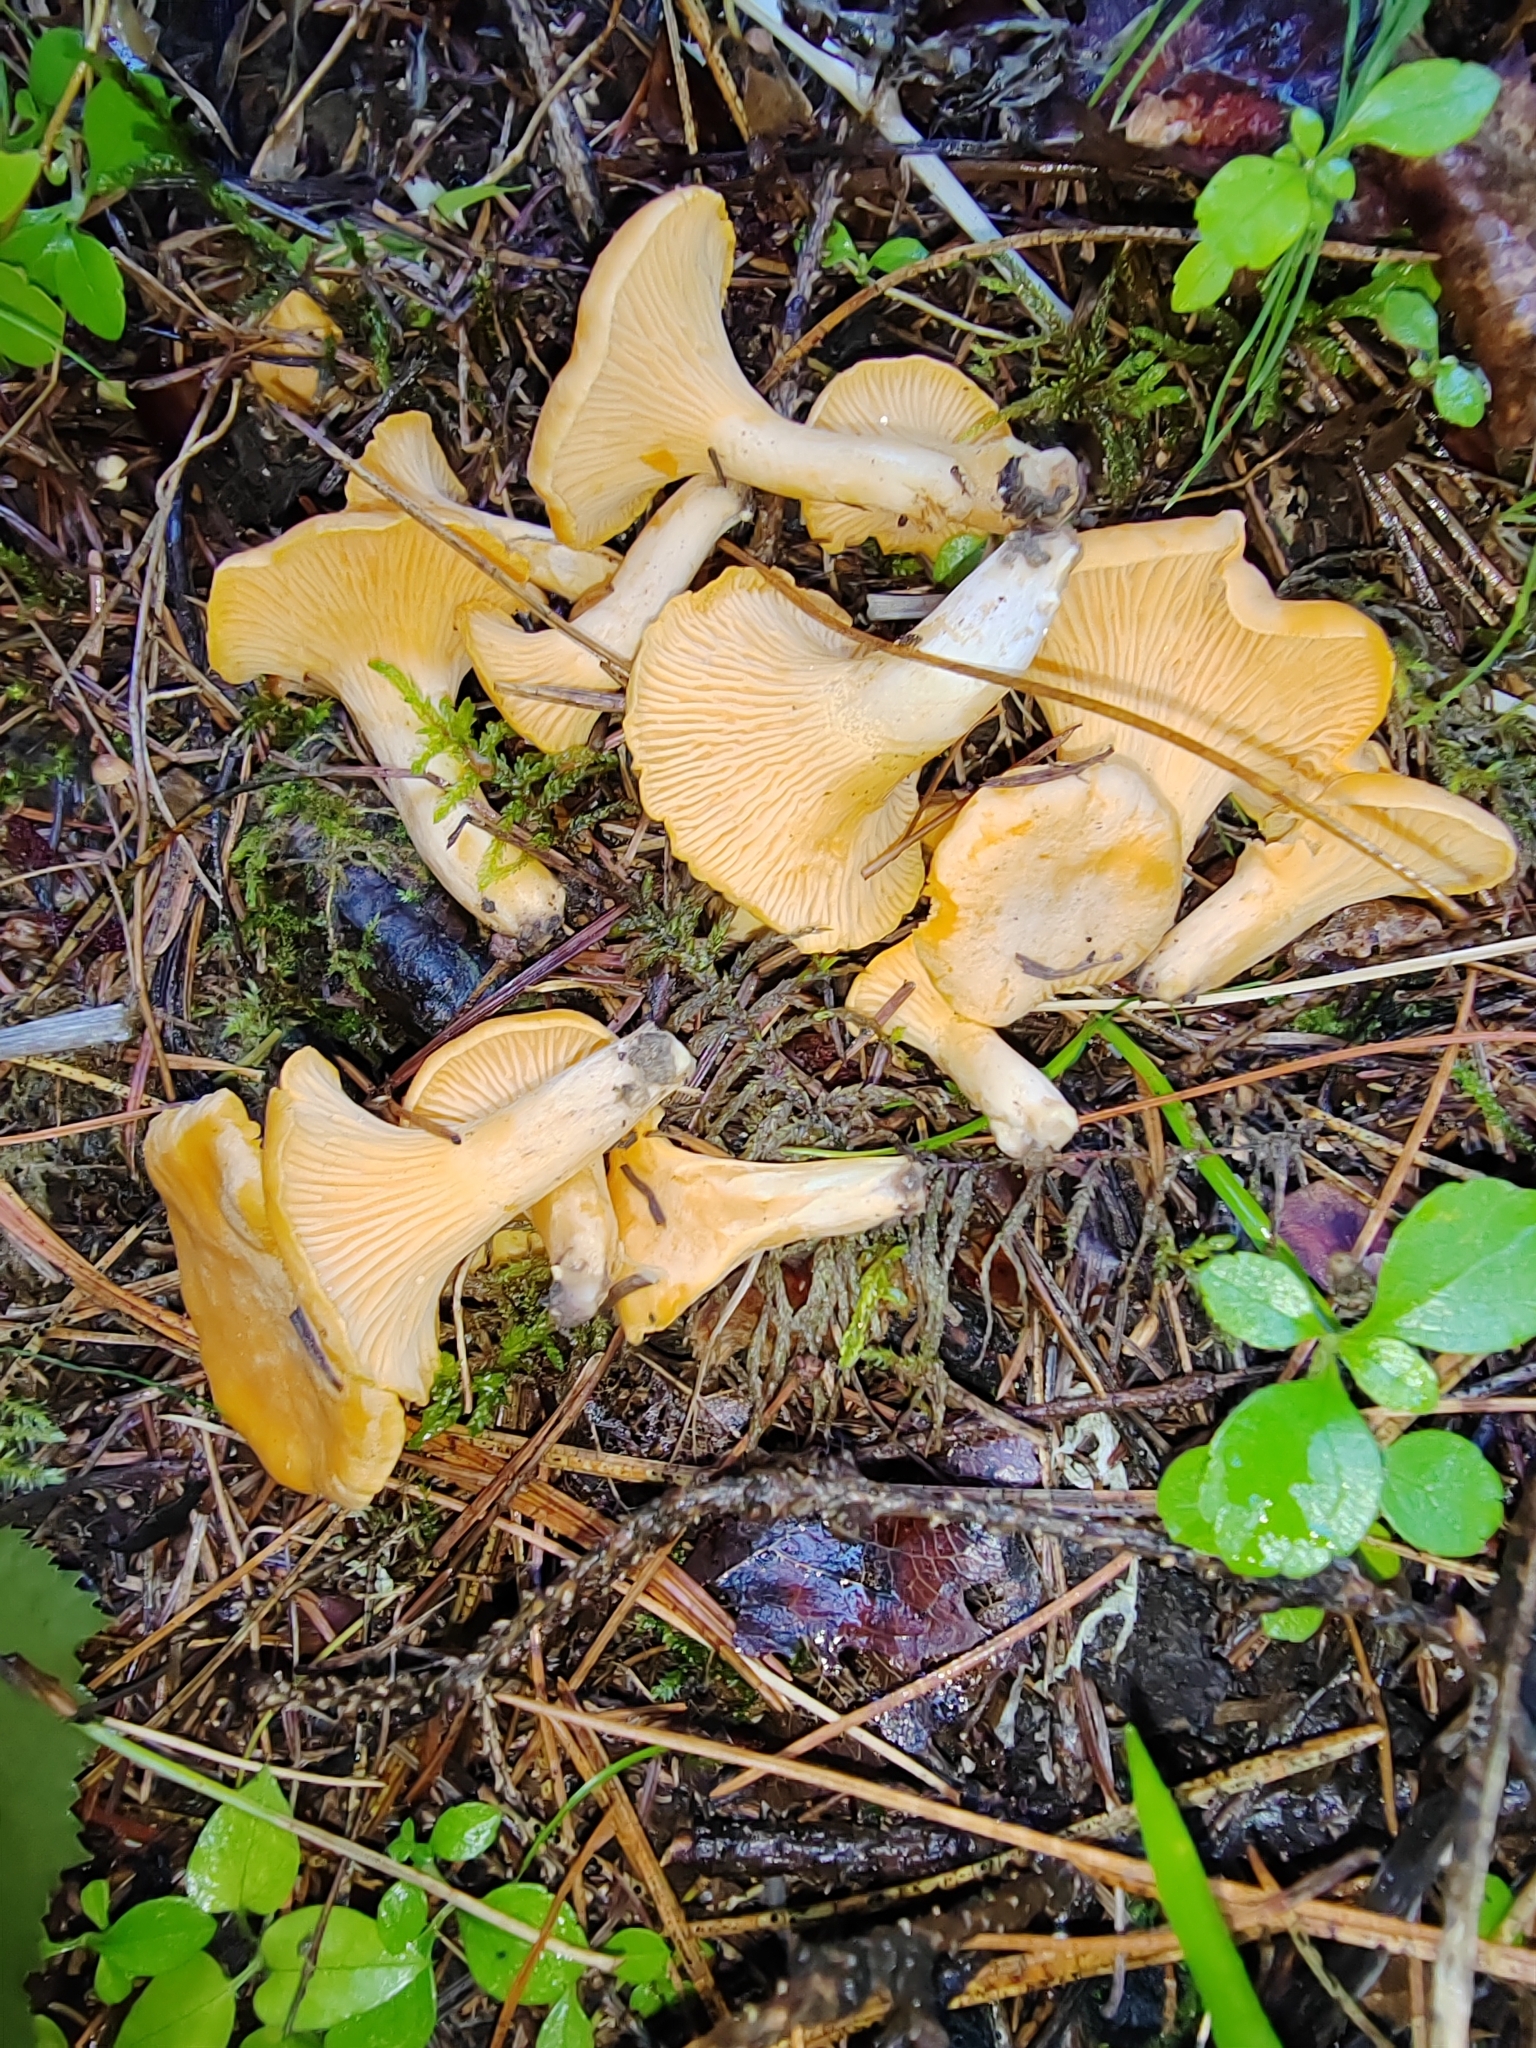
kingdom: Fungi
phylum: Basidiomycota
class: Agaricomycetes
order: Cantharellales
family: Hydnaceae
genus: Cantharellus
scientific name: Cantharellus cibarius
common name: Chanterelle
